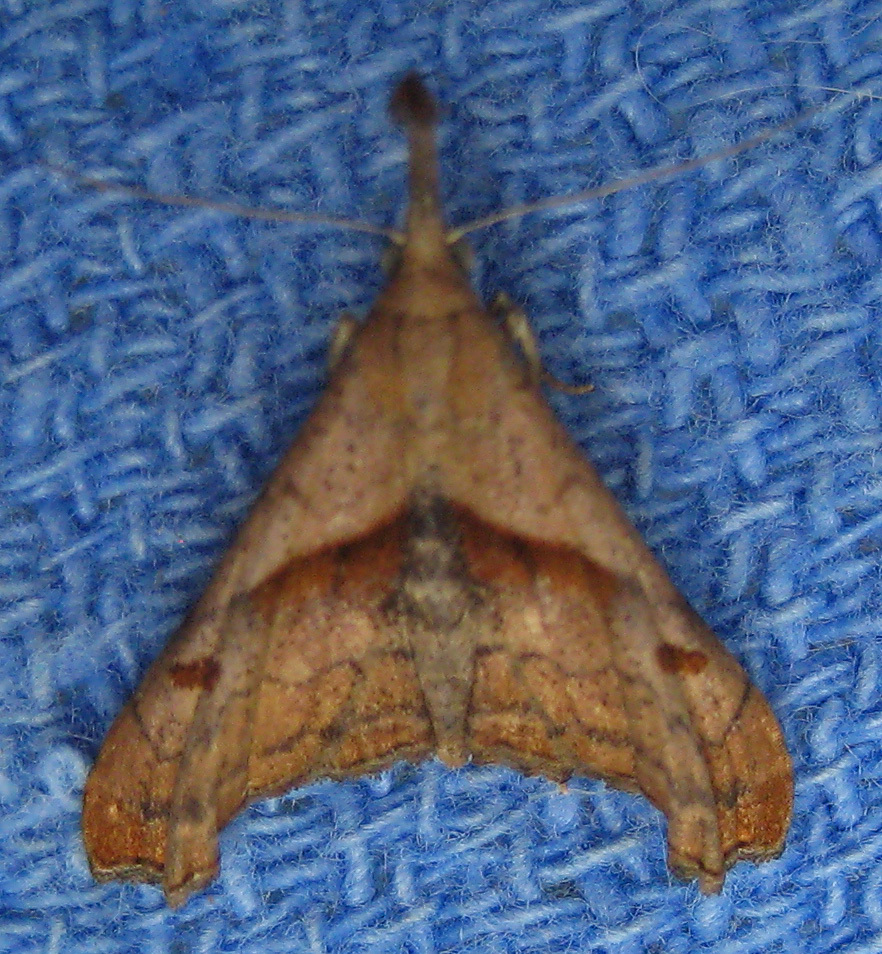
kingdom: Animalia
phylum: Arthropoda
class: Insecta
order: Lepidoptera
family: Erebidae
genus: Palthis
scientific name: Palthis angulalis
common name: Dark-spotted palthis moth
